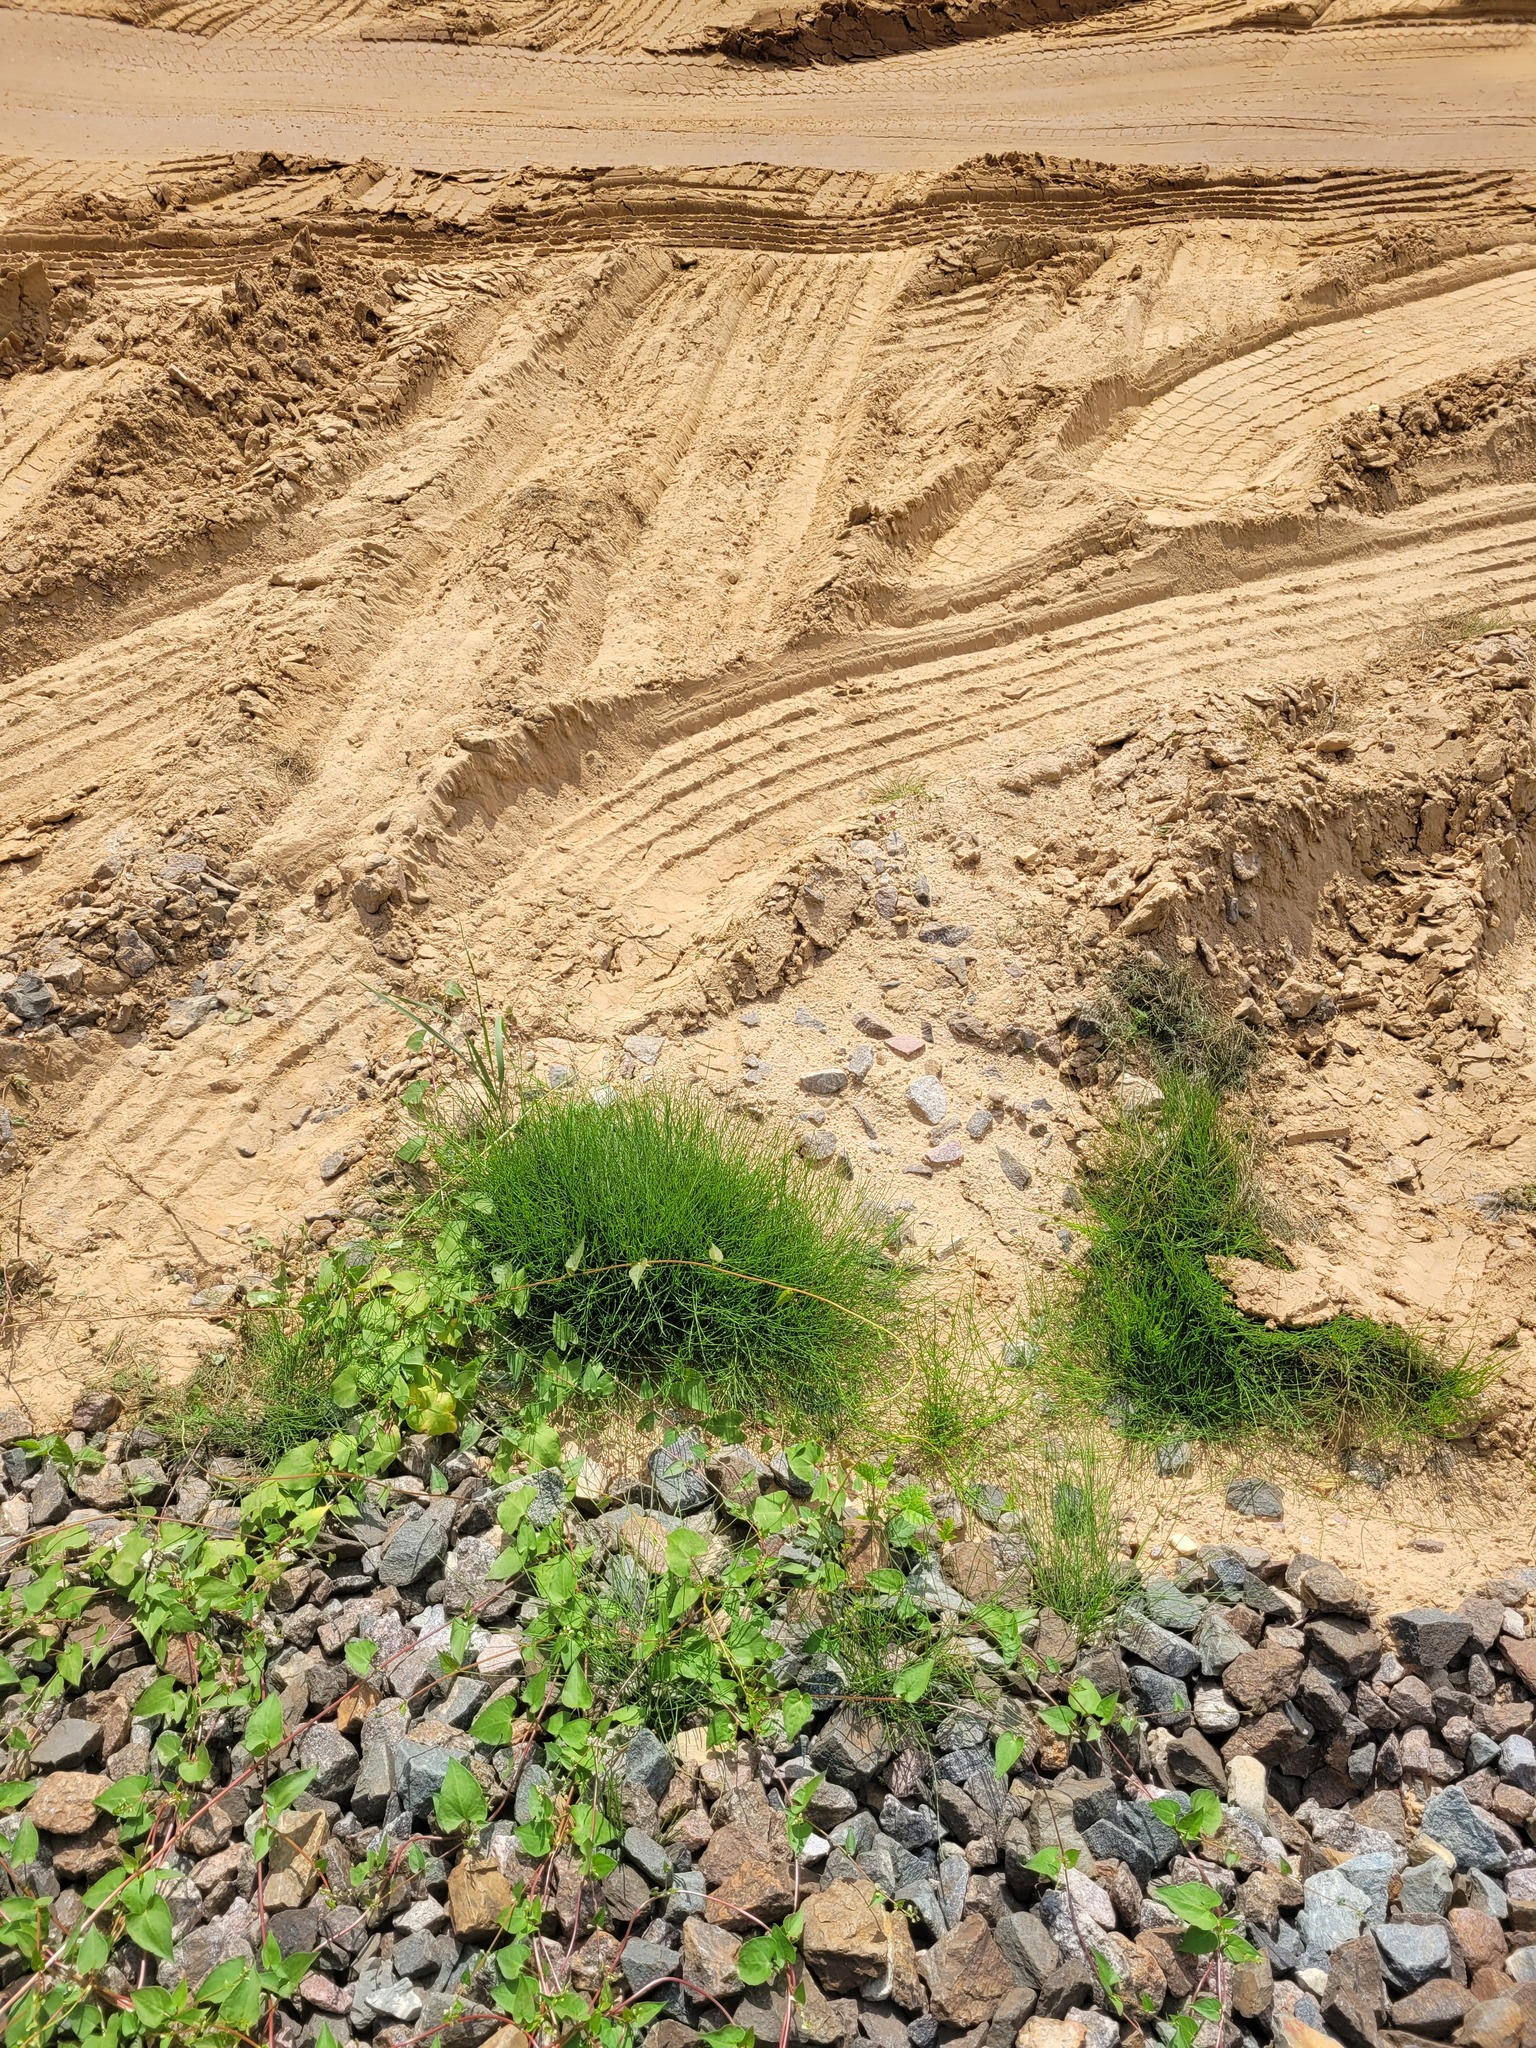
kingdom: Plantae
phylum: Tracheophyta
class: Polypodiopsida
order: Equisetales
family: Equisetaceae
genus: Equisetum
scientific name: Equisetum arvense
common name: Field horsetail
